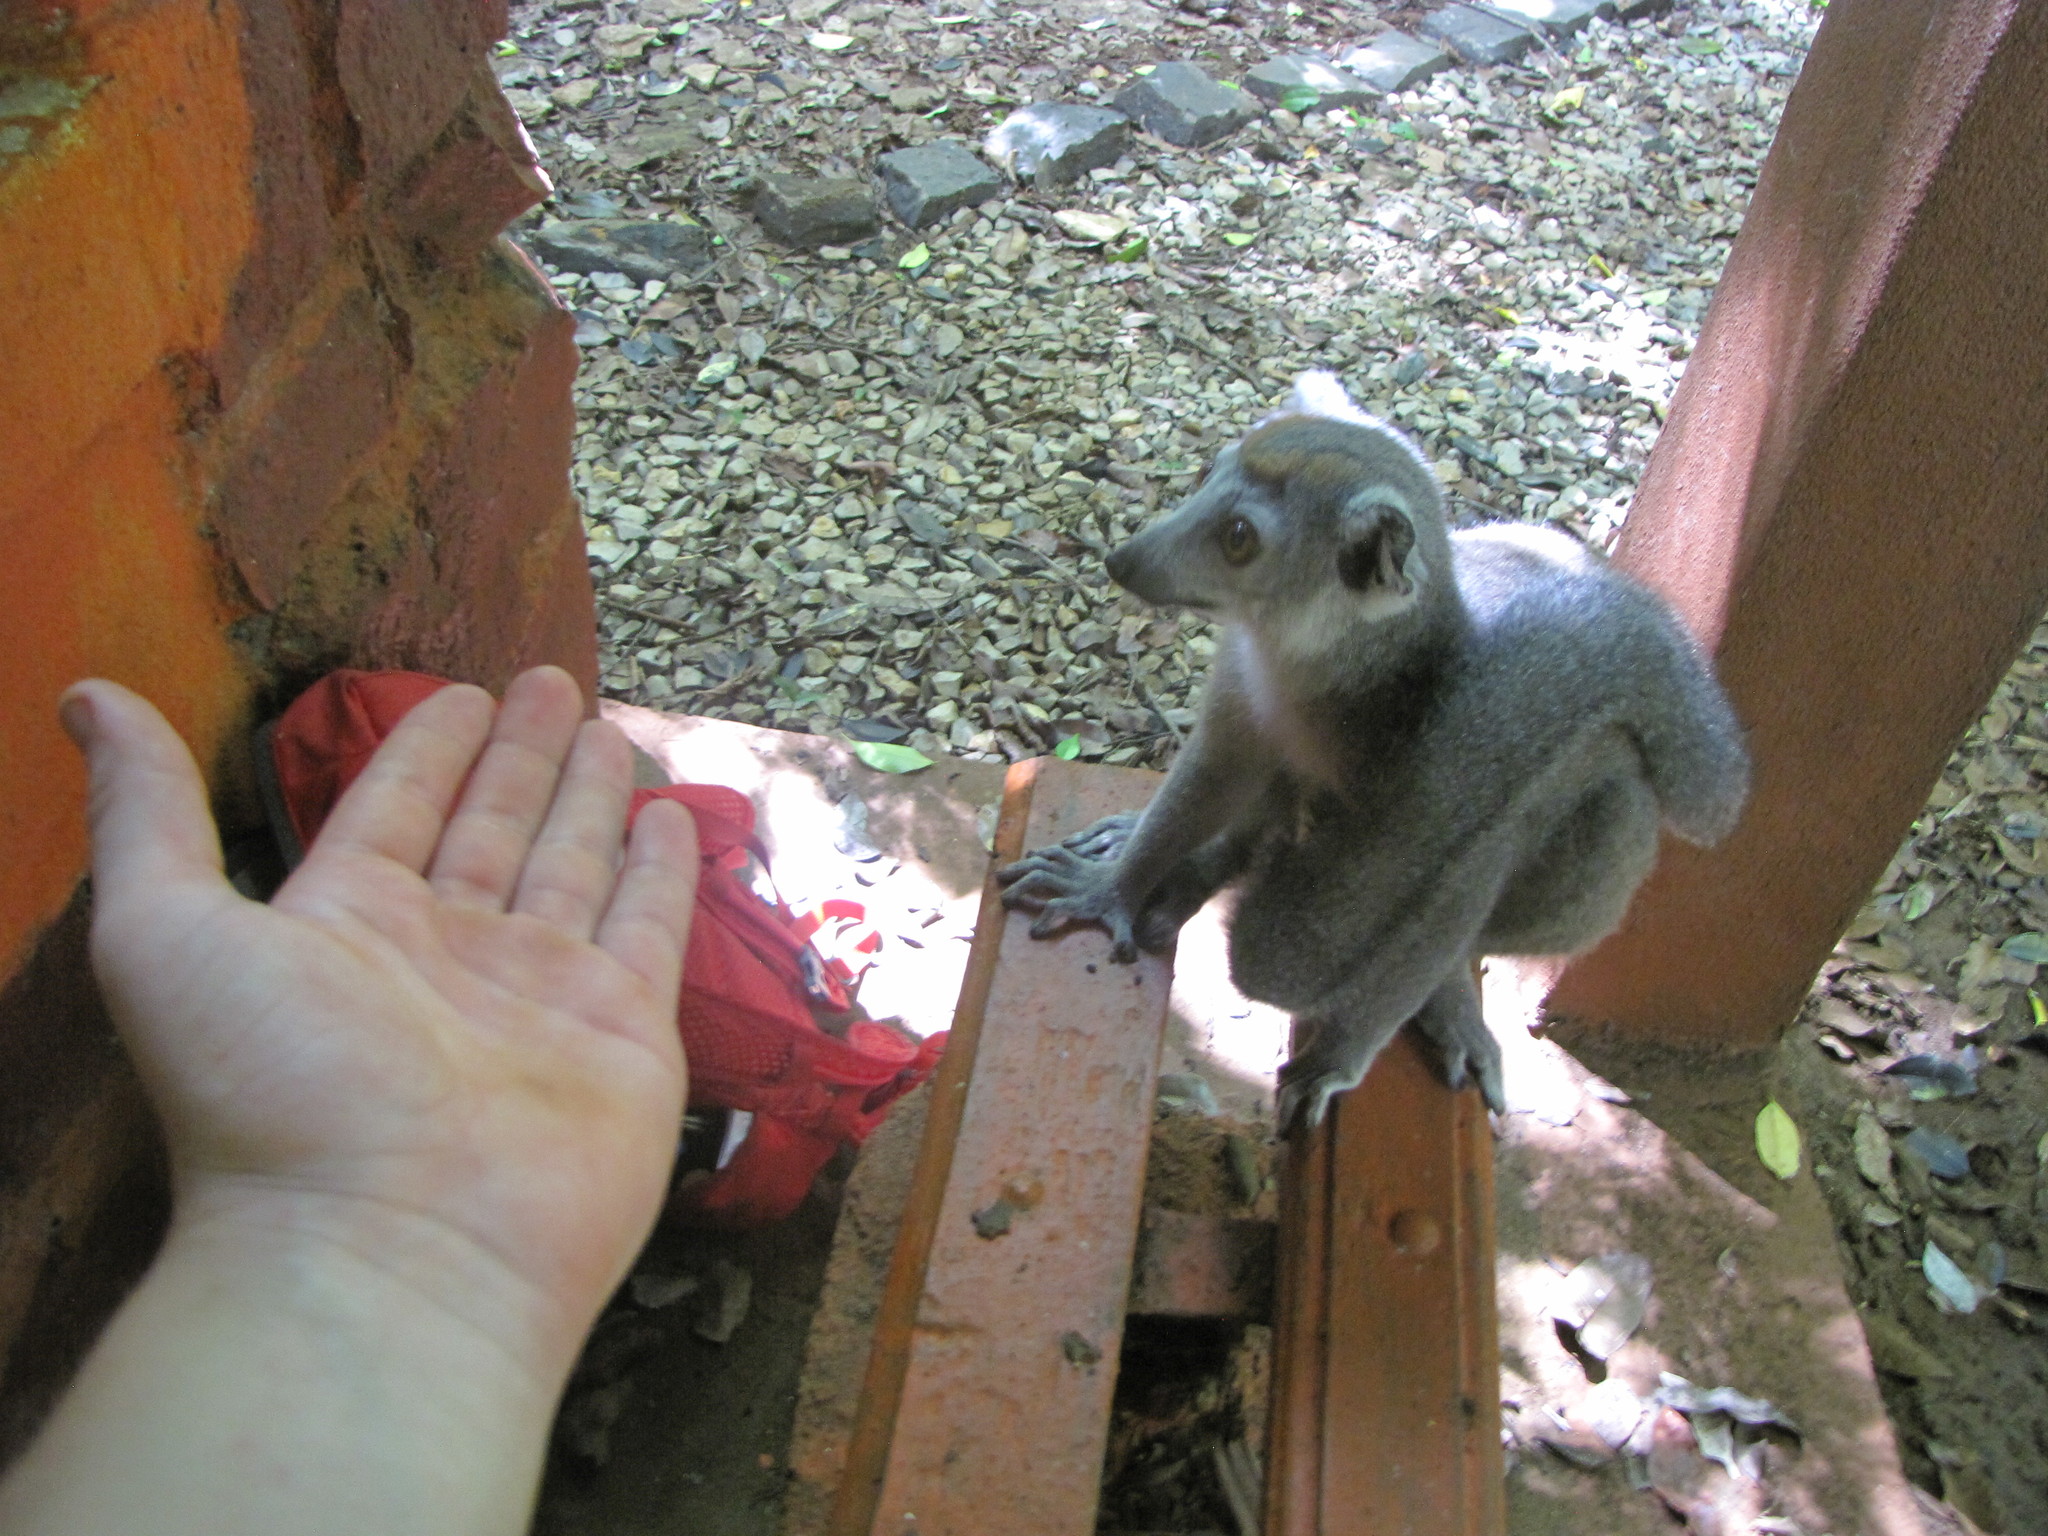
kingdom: Animalia
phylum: Chordata
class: Mammalia
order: Primates
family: Lemuridae
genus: Eulemur
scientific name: Eulemur coronatus
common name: Crowned lemur
